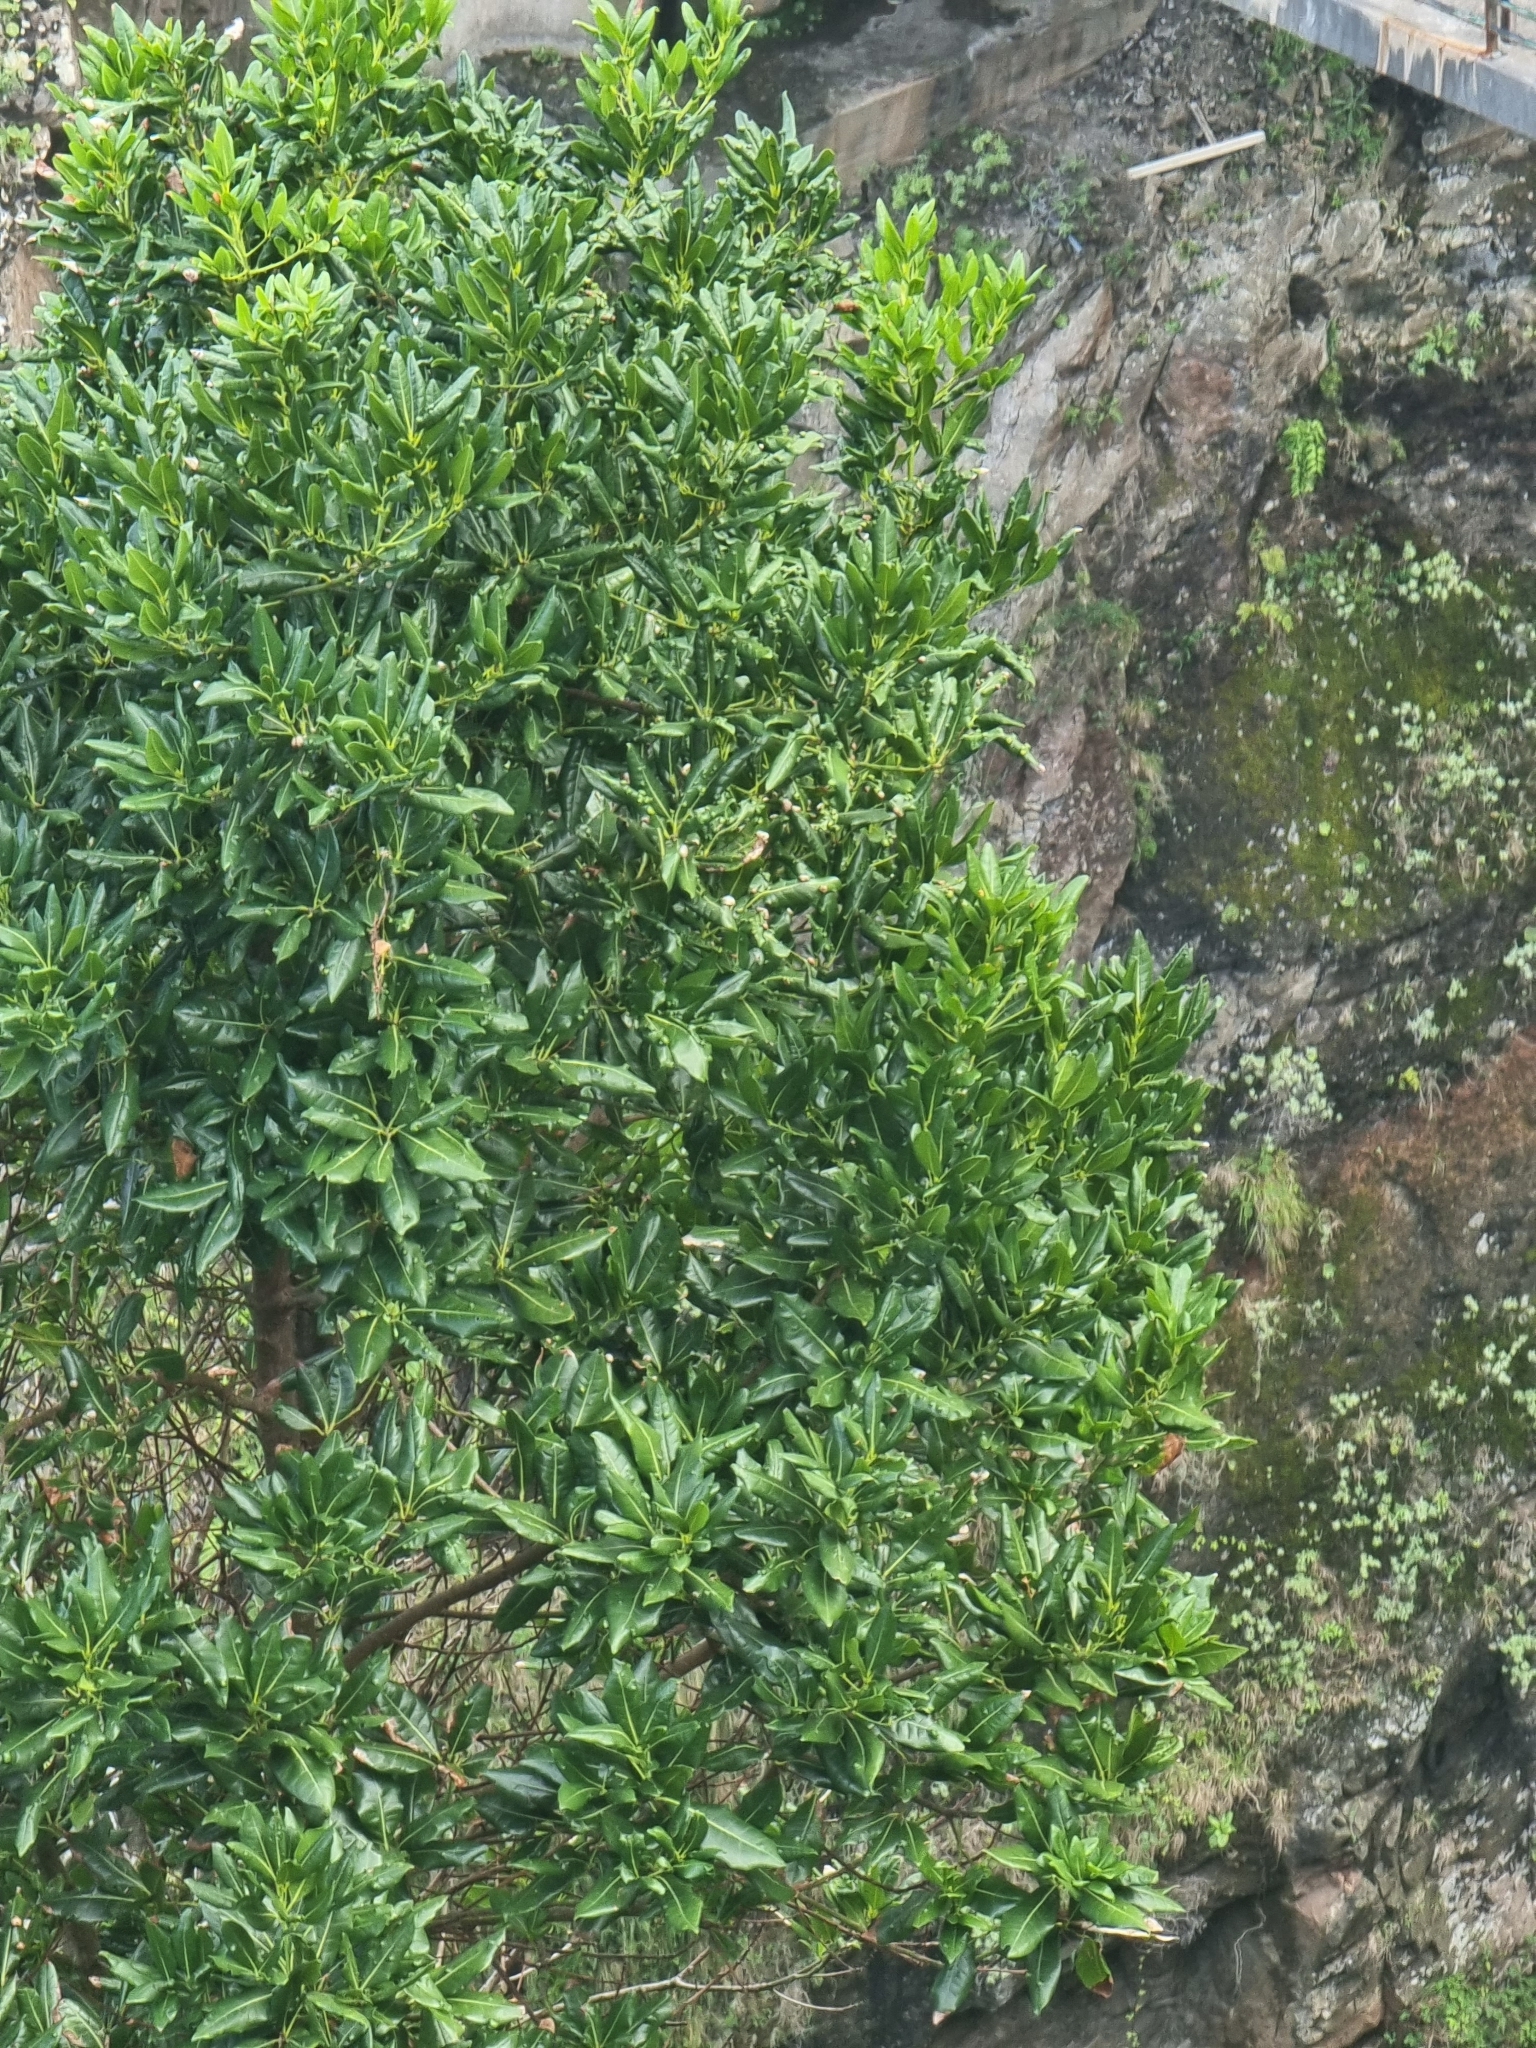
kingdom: Plantae
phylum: Tracheophyta
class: Magnoliopsida
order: Laurales
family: Lauraceae
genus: Apollonias
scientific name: Apollonias barbujana
